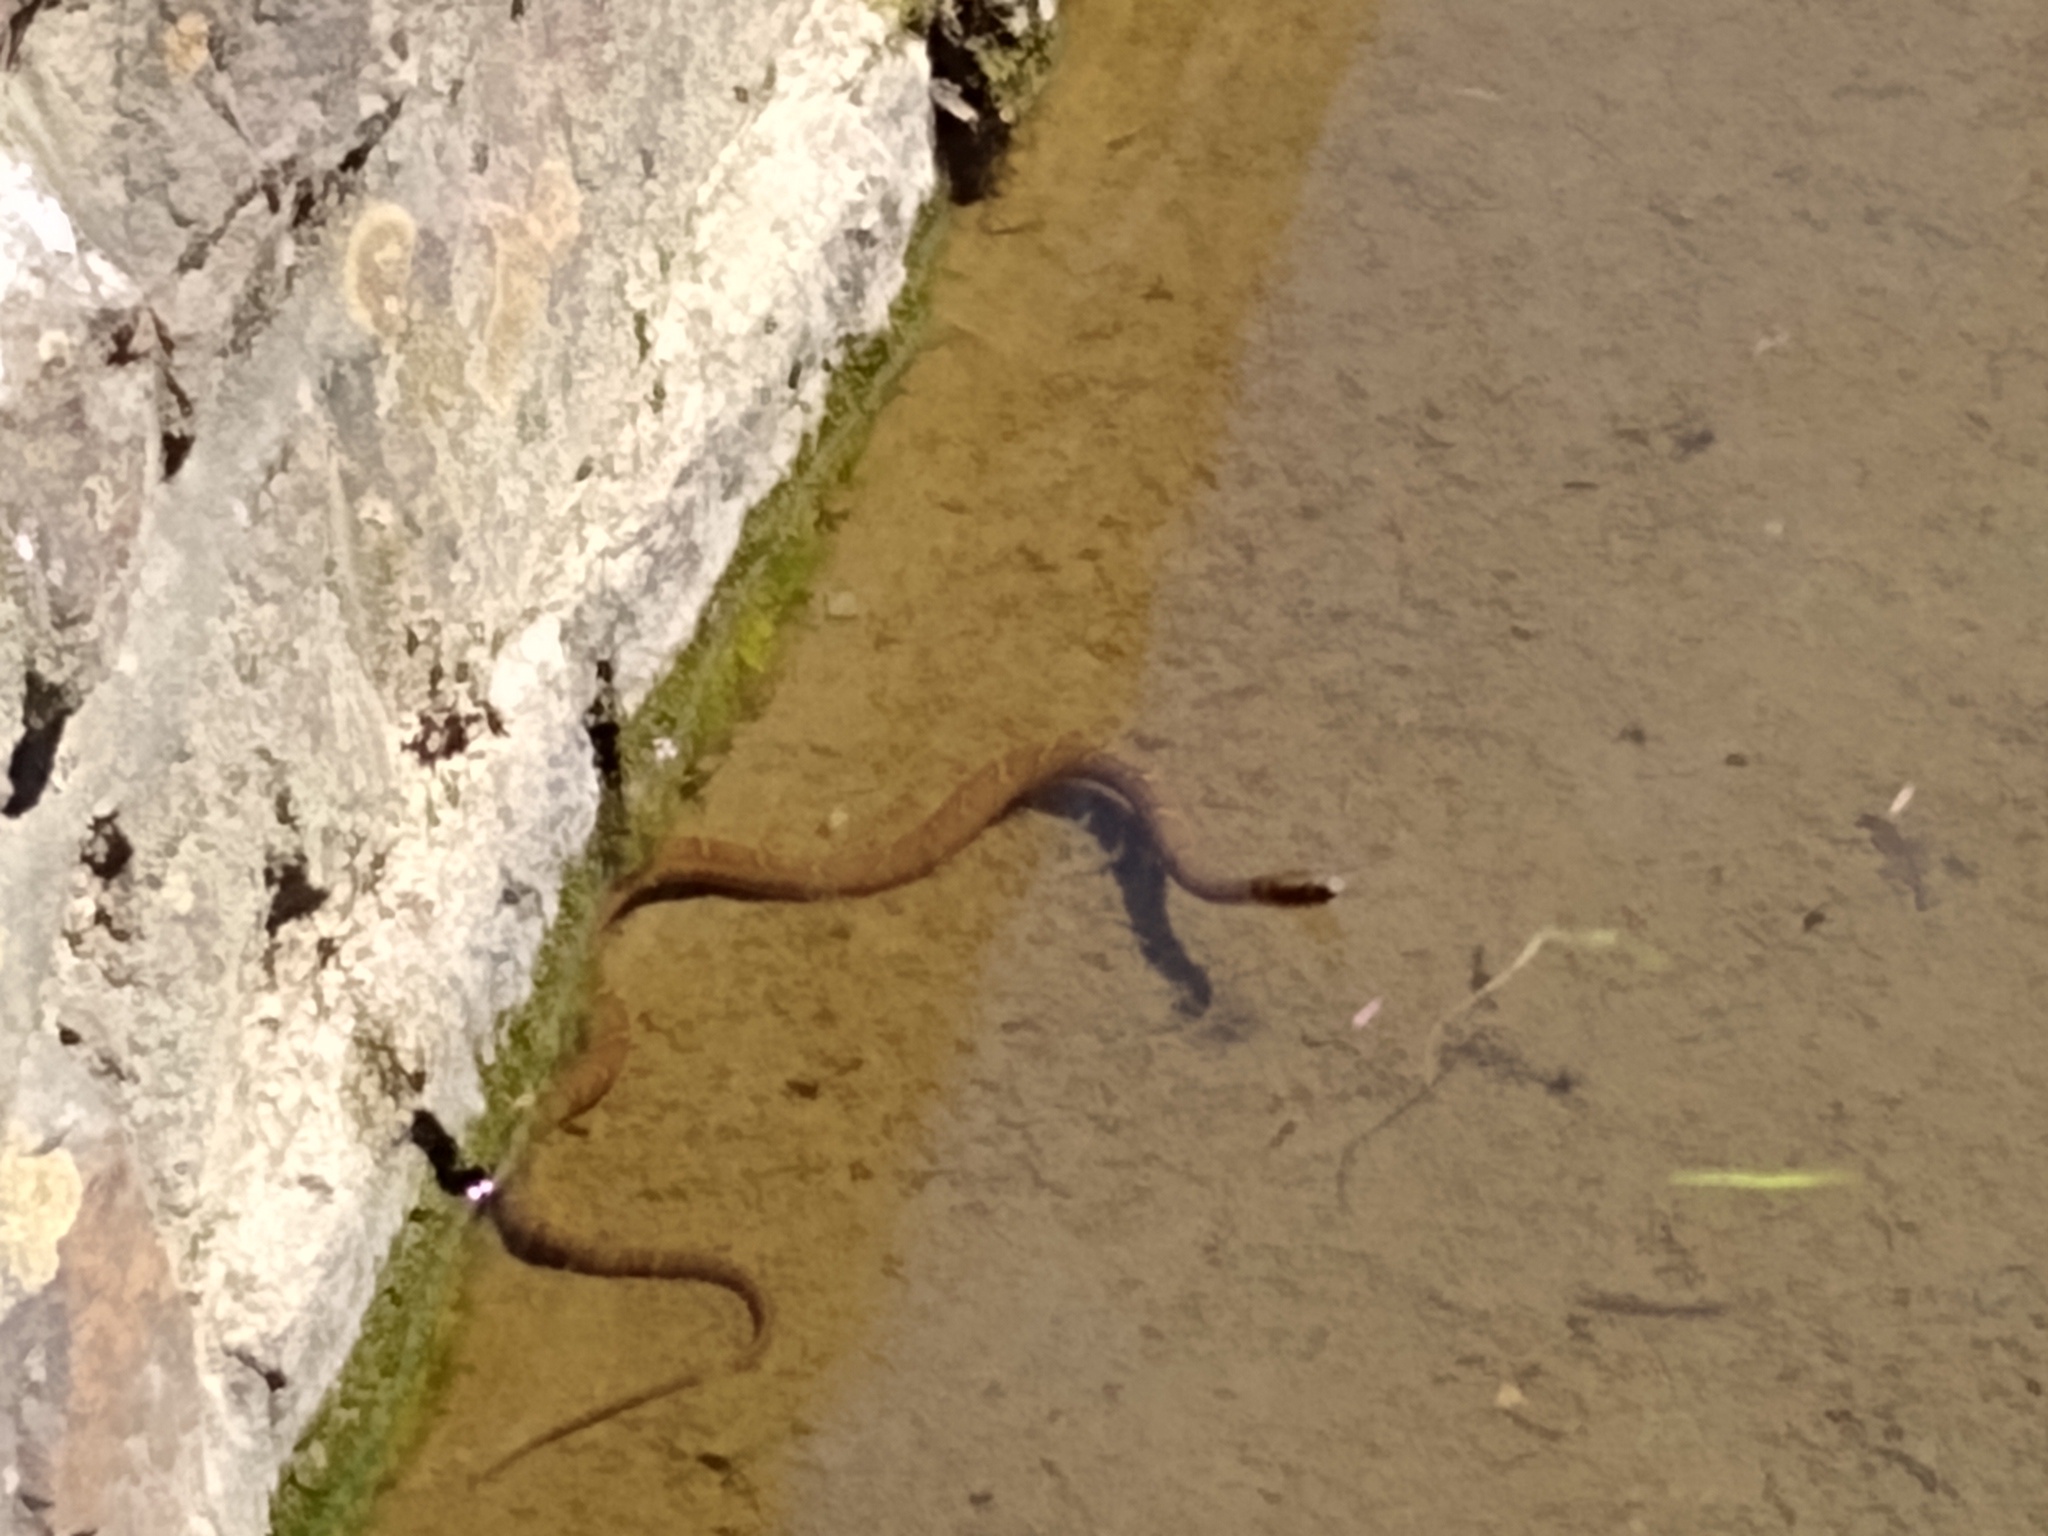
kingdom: Animalia
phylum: Chordata
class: Squamata
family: Colubridae
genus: Nerodia
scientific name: Nerodia sipedon
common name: Northern water snake
